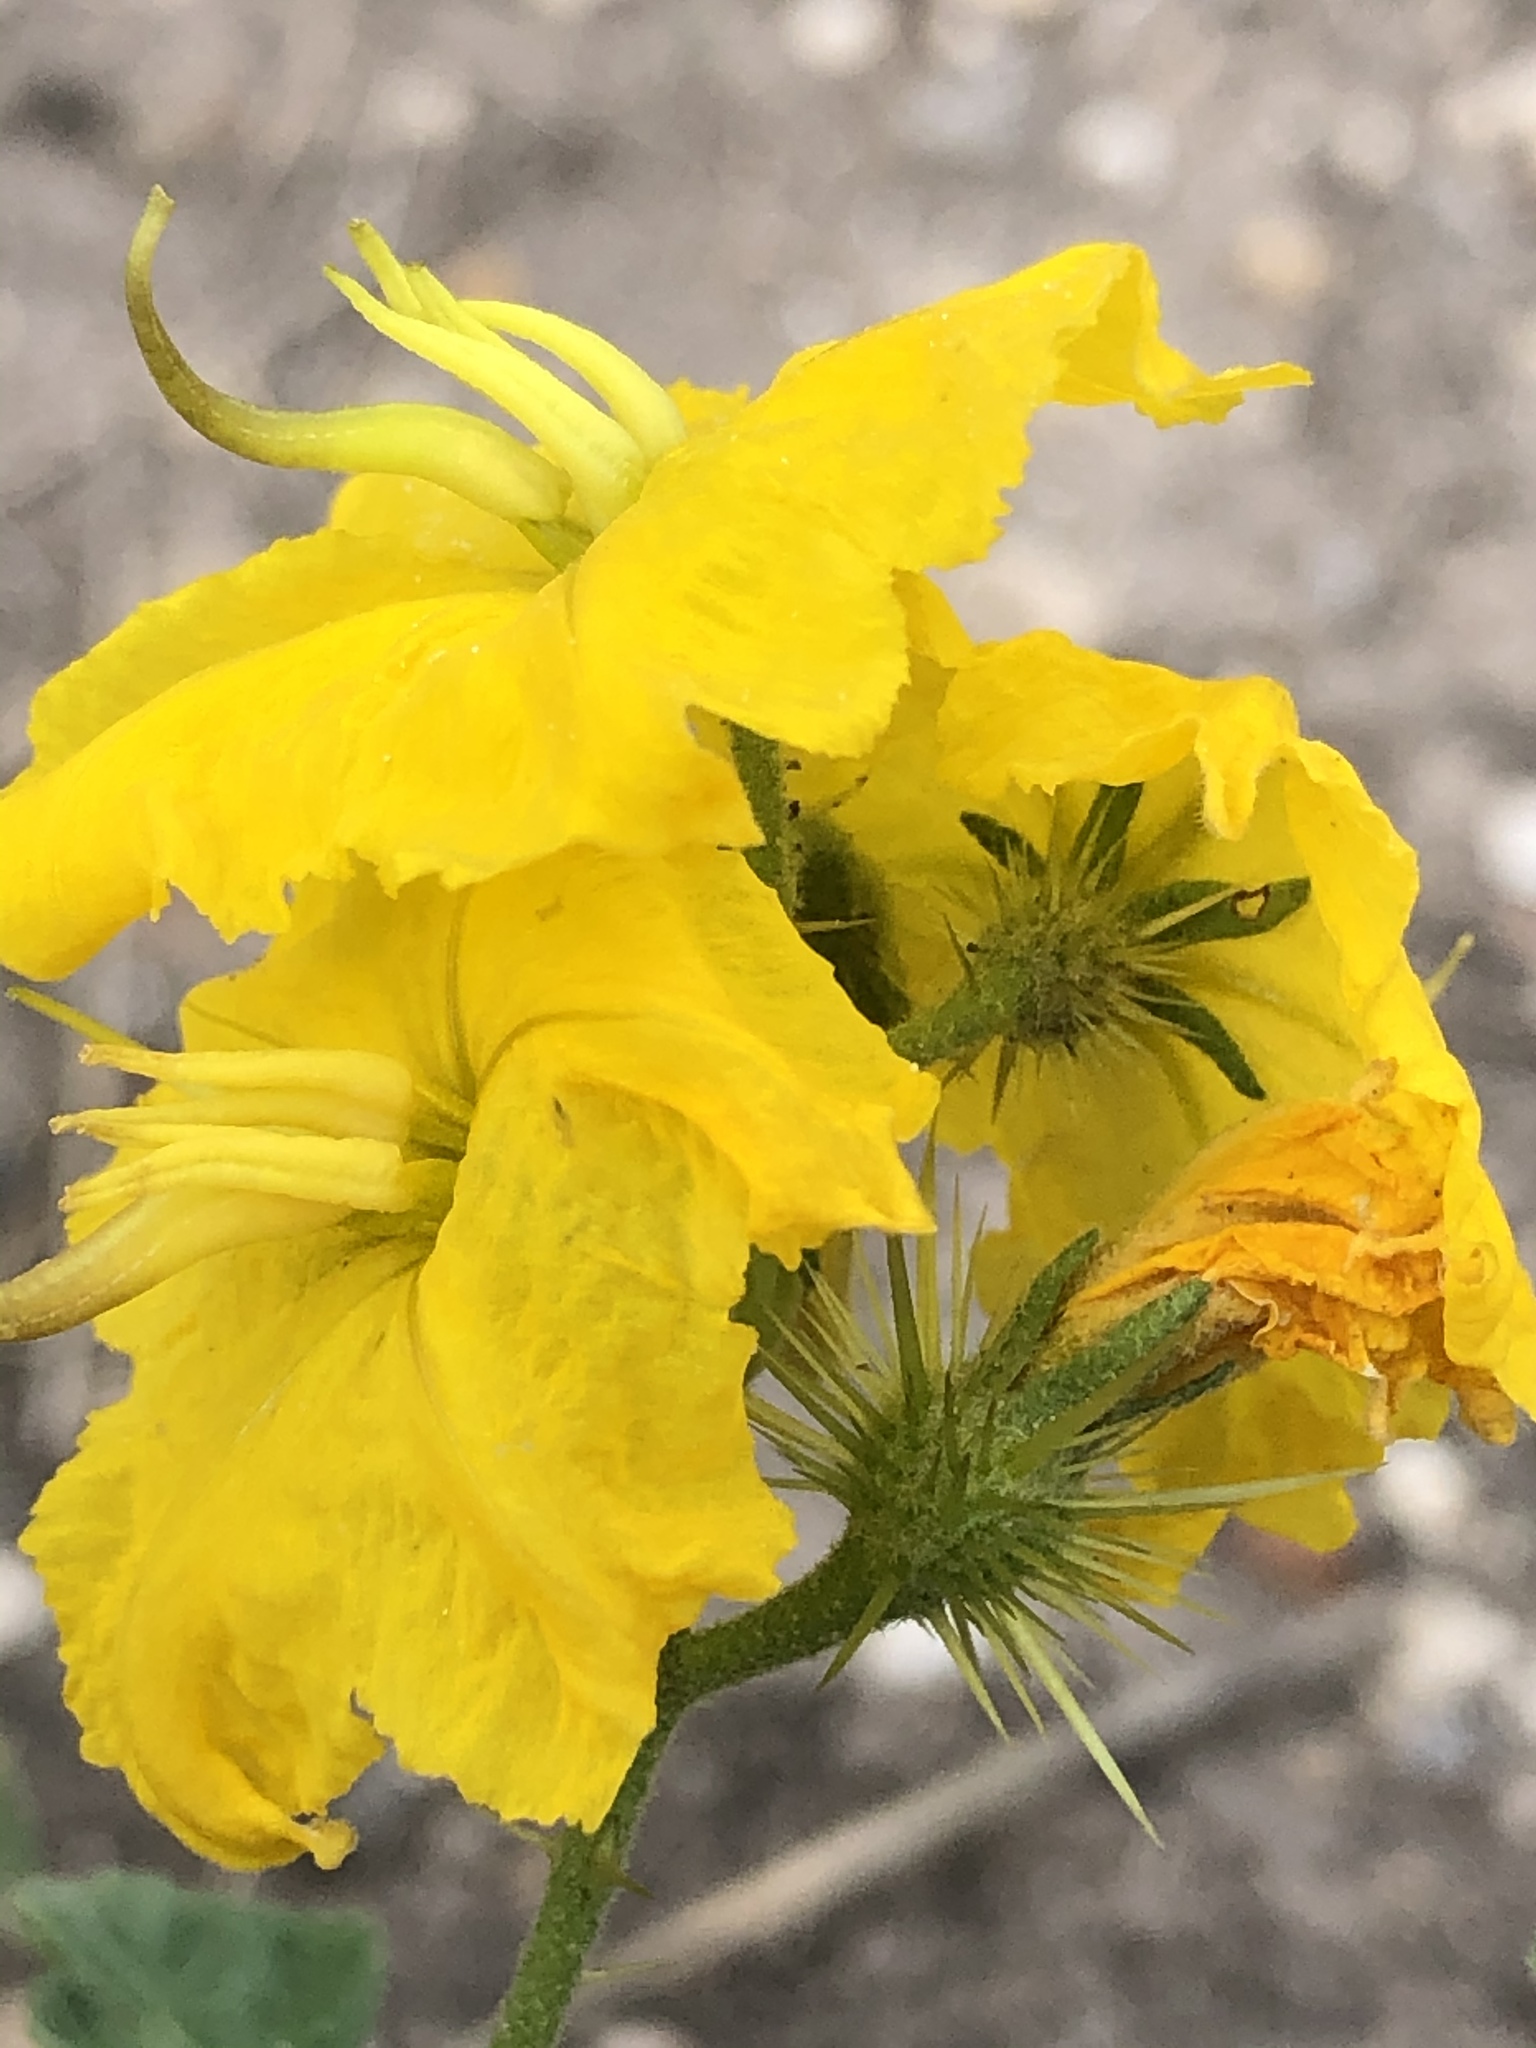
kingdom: Plantae
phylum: Tracheophyta
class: Magnoliopsida
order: Solanales
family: Solanaceae
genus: Solanum
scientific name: Solanum angustifolium
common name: Buffalobur nightshade
